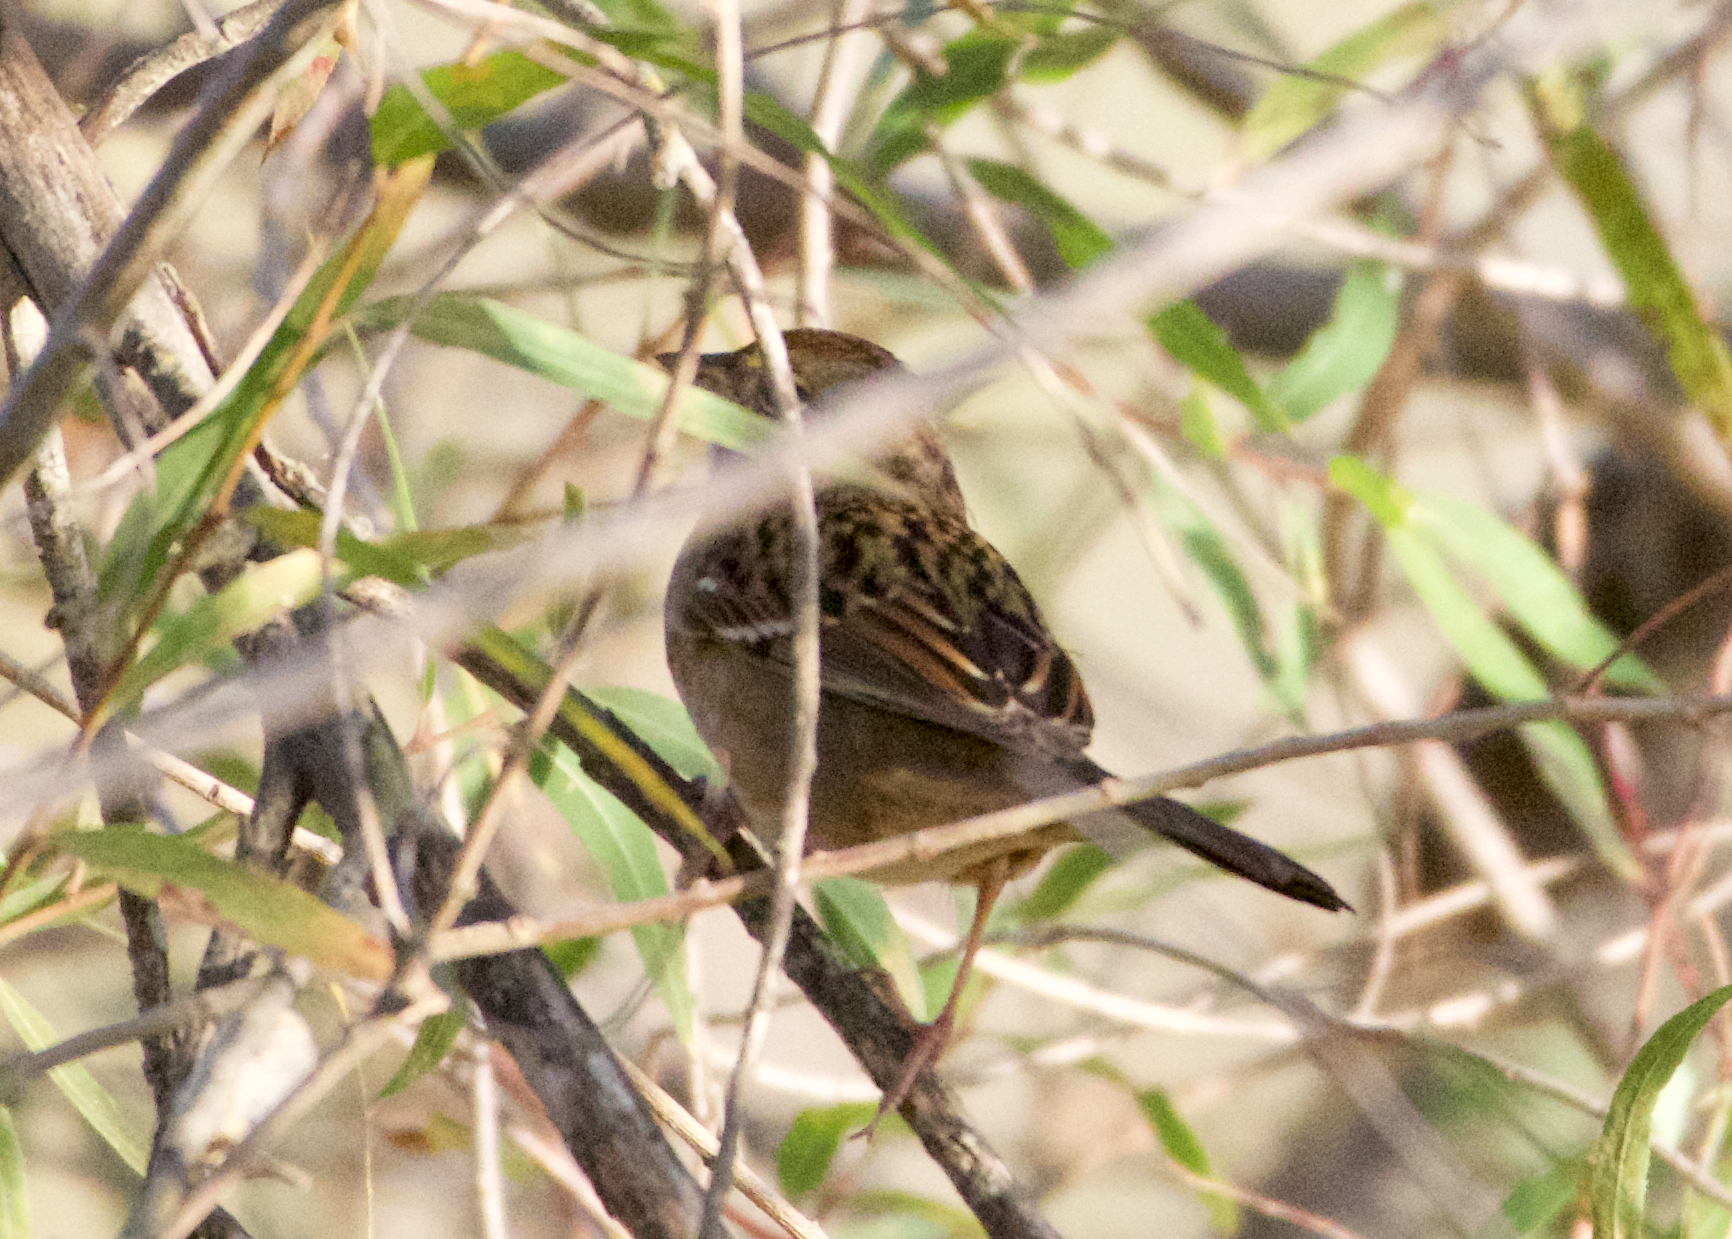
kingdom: Animalia
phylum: Chordata
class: Aves
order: Passeriformes
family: Passerellidae
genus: Zonotrichia
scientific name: Zonotrichia atricapilla
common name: Golden-crowned sparrow
